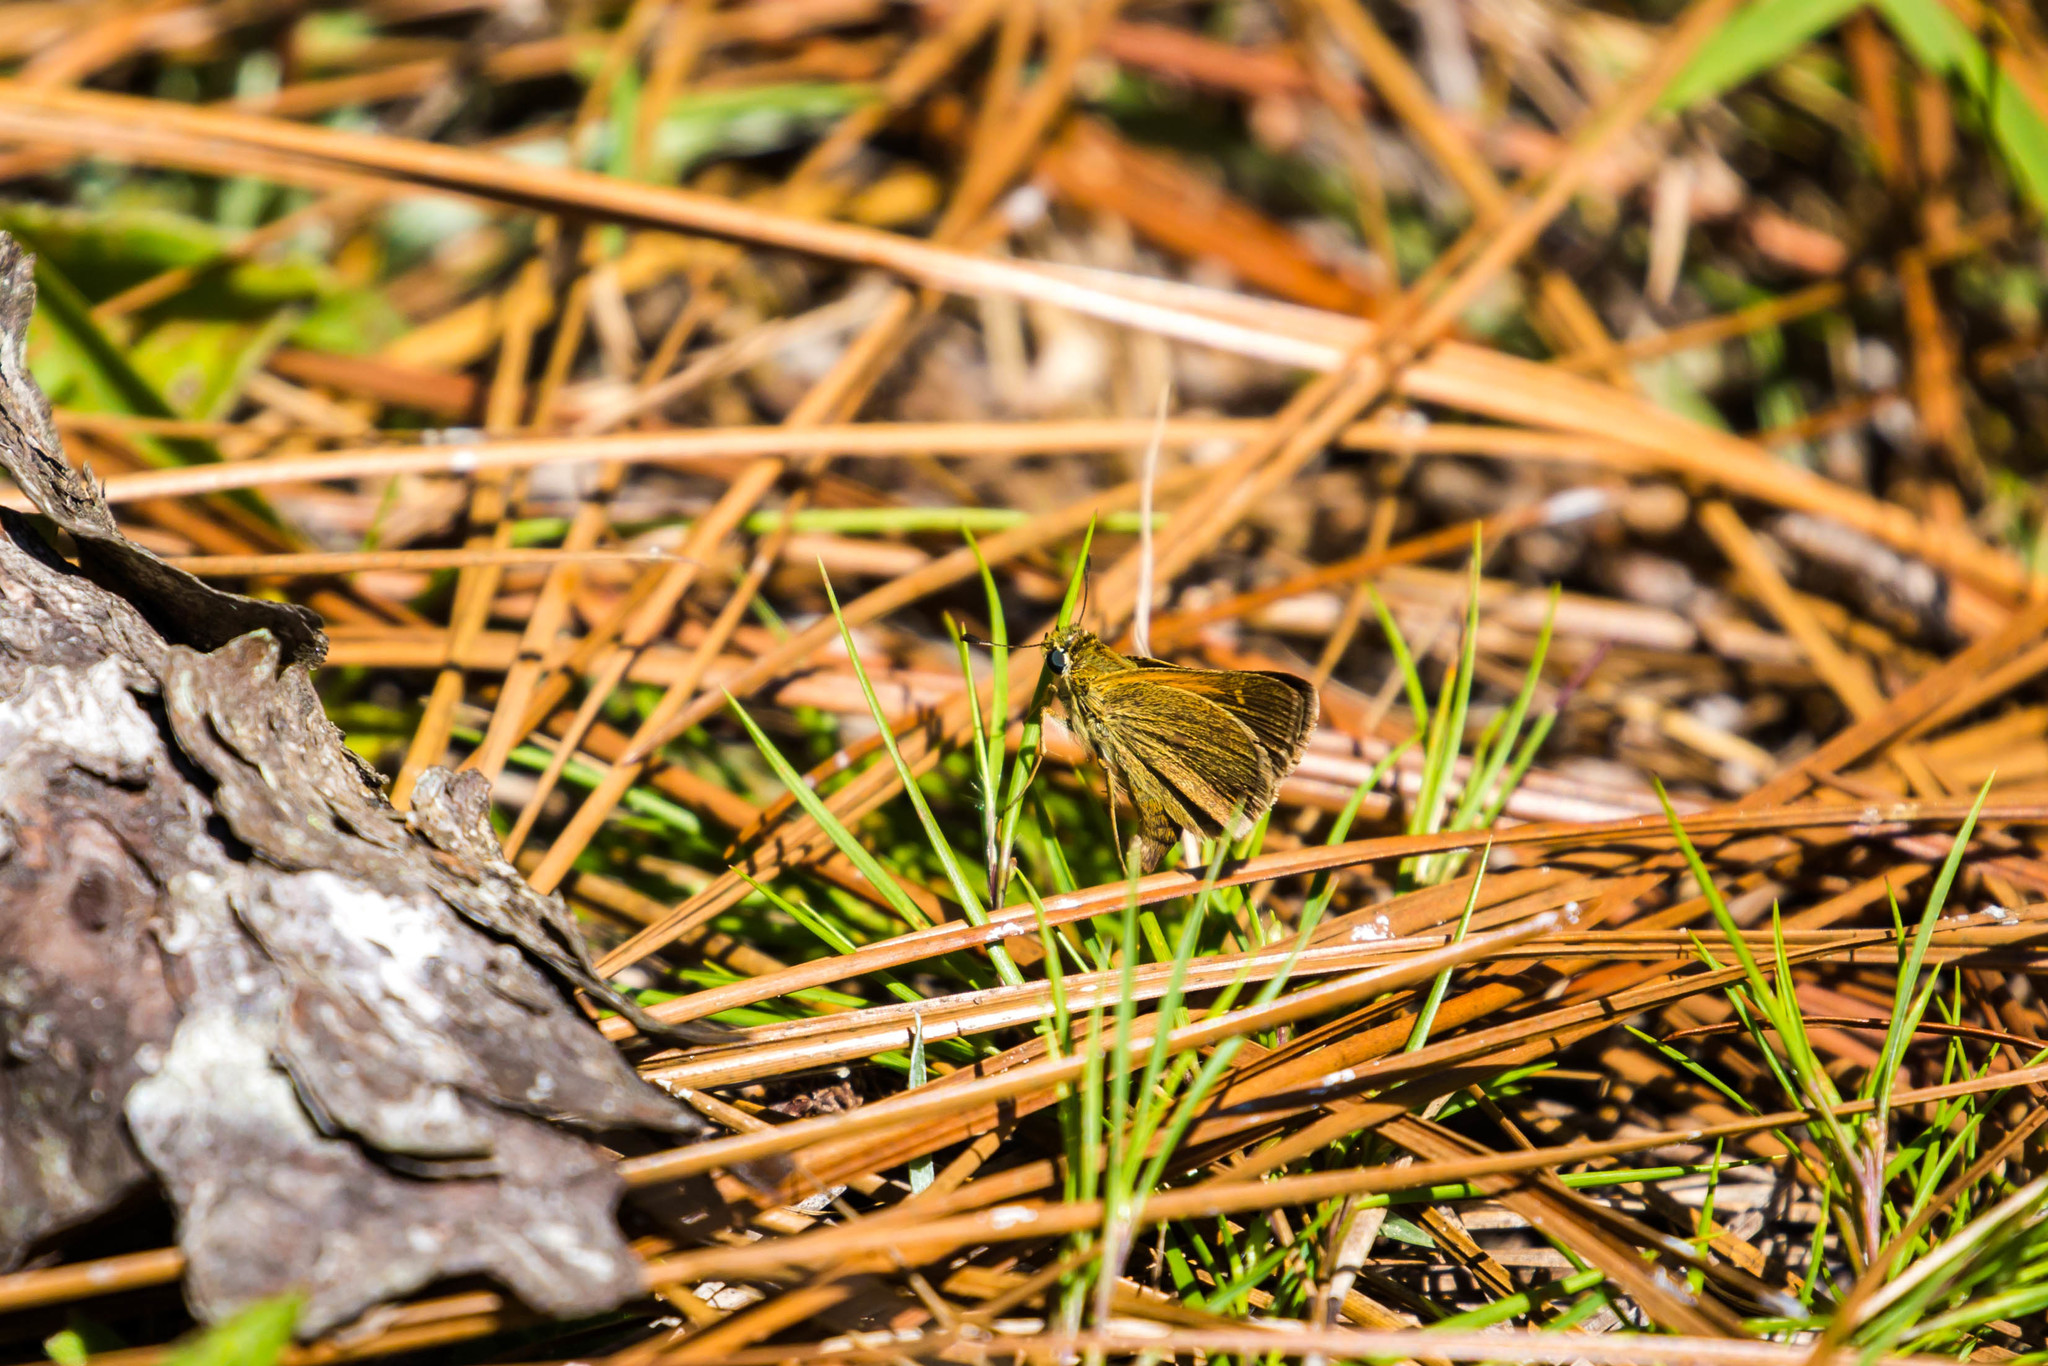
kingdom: Animalia
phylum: Arthropoda
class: Insecta
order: Lepidoptera
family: Hesperiidae
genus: Polites
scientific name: Polites themistocles
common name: Tawny-edged skipper
